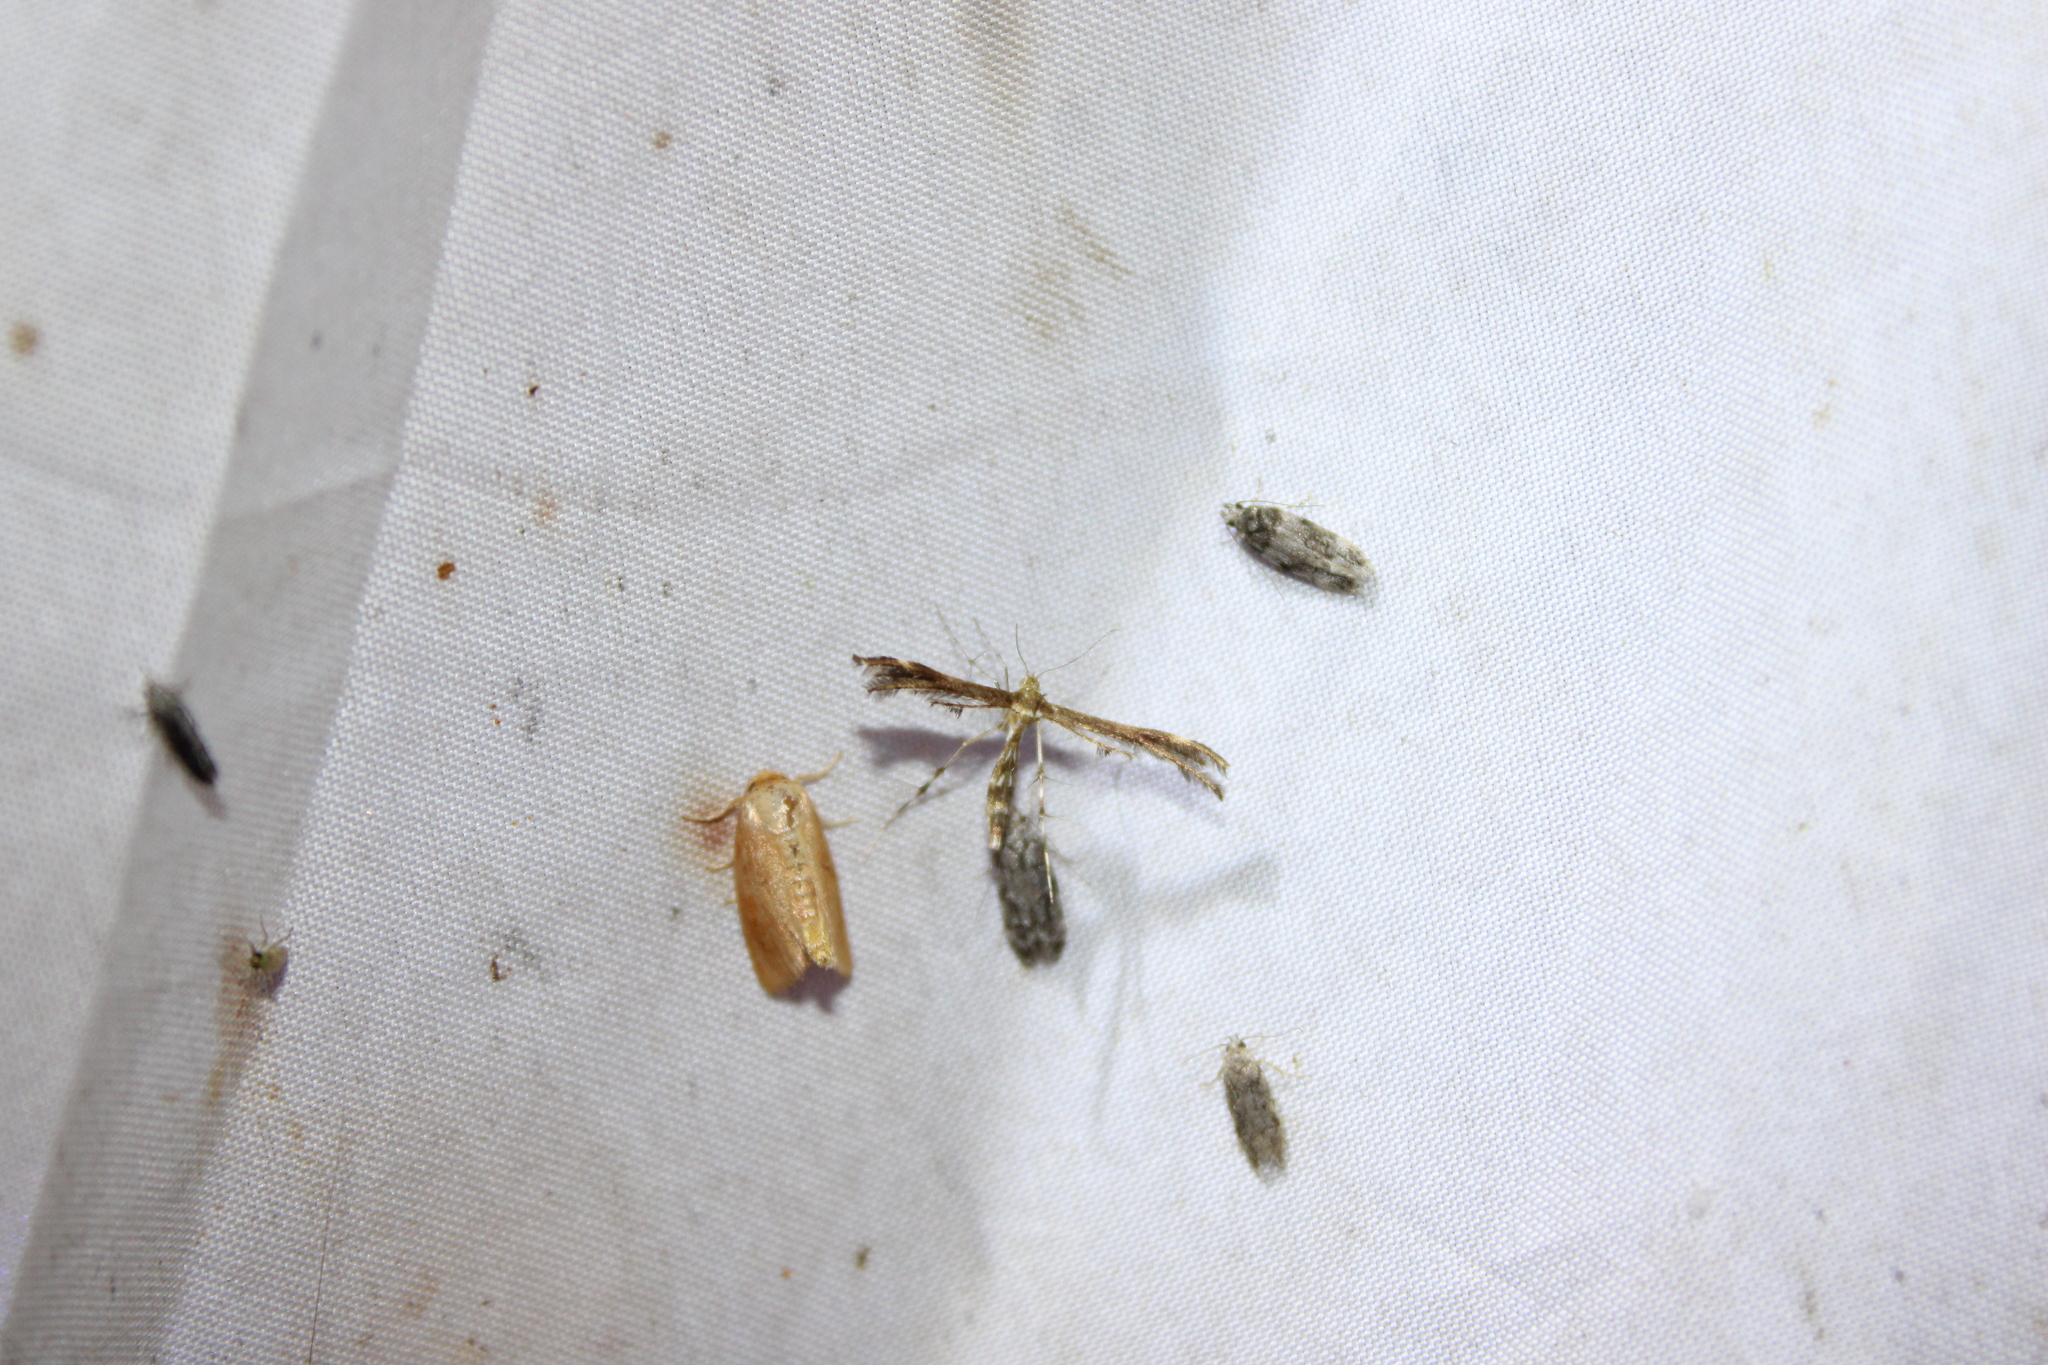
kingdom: Animalia
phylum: Arthropoda
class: Insecta
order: Lepidoptera
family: Pterophoridae
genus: Dejongia
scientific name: Dejongia lobidactylus
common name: Lobed plume moth
